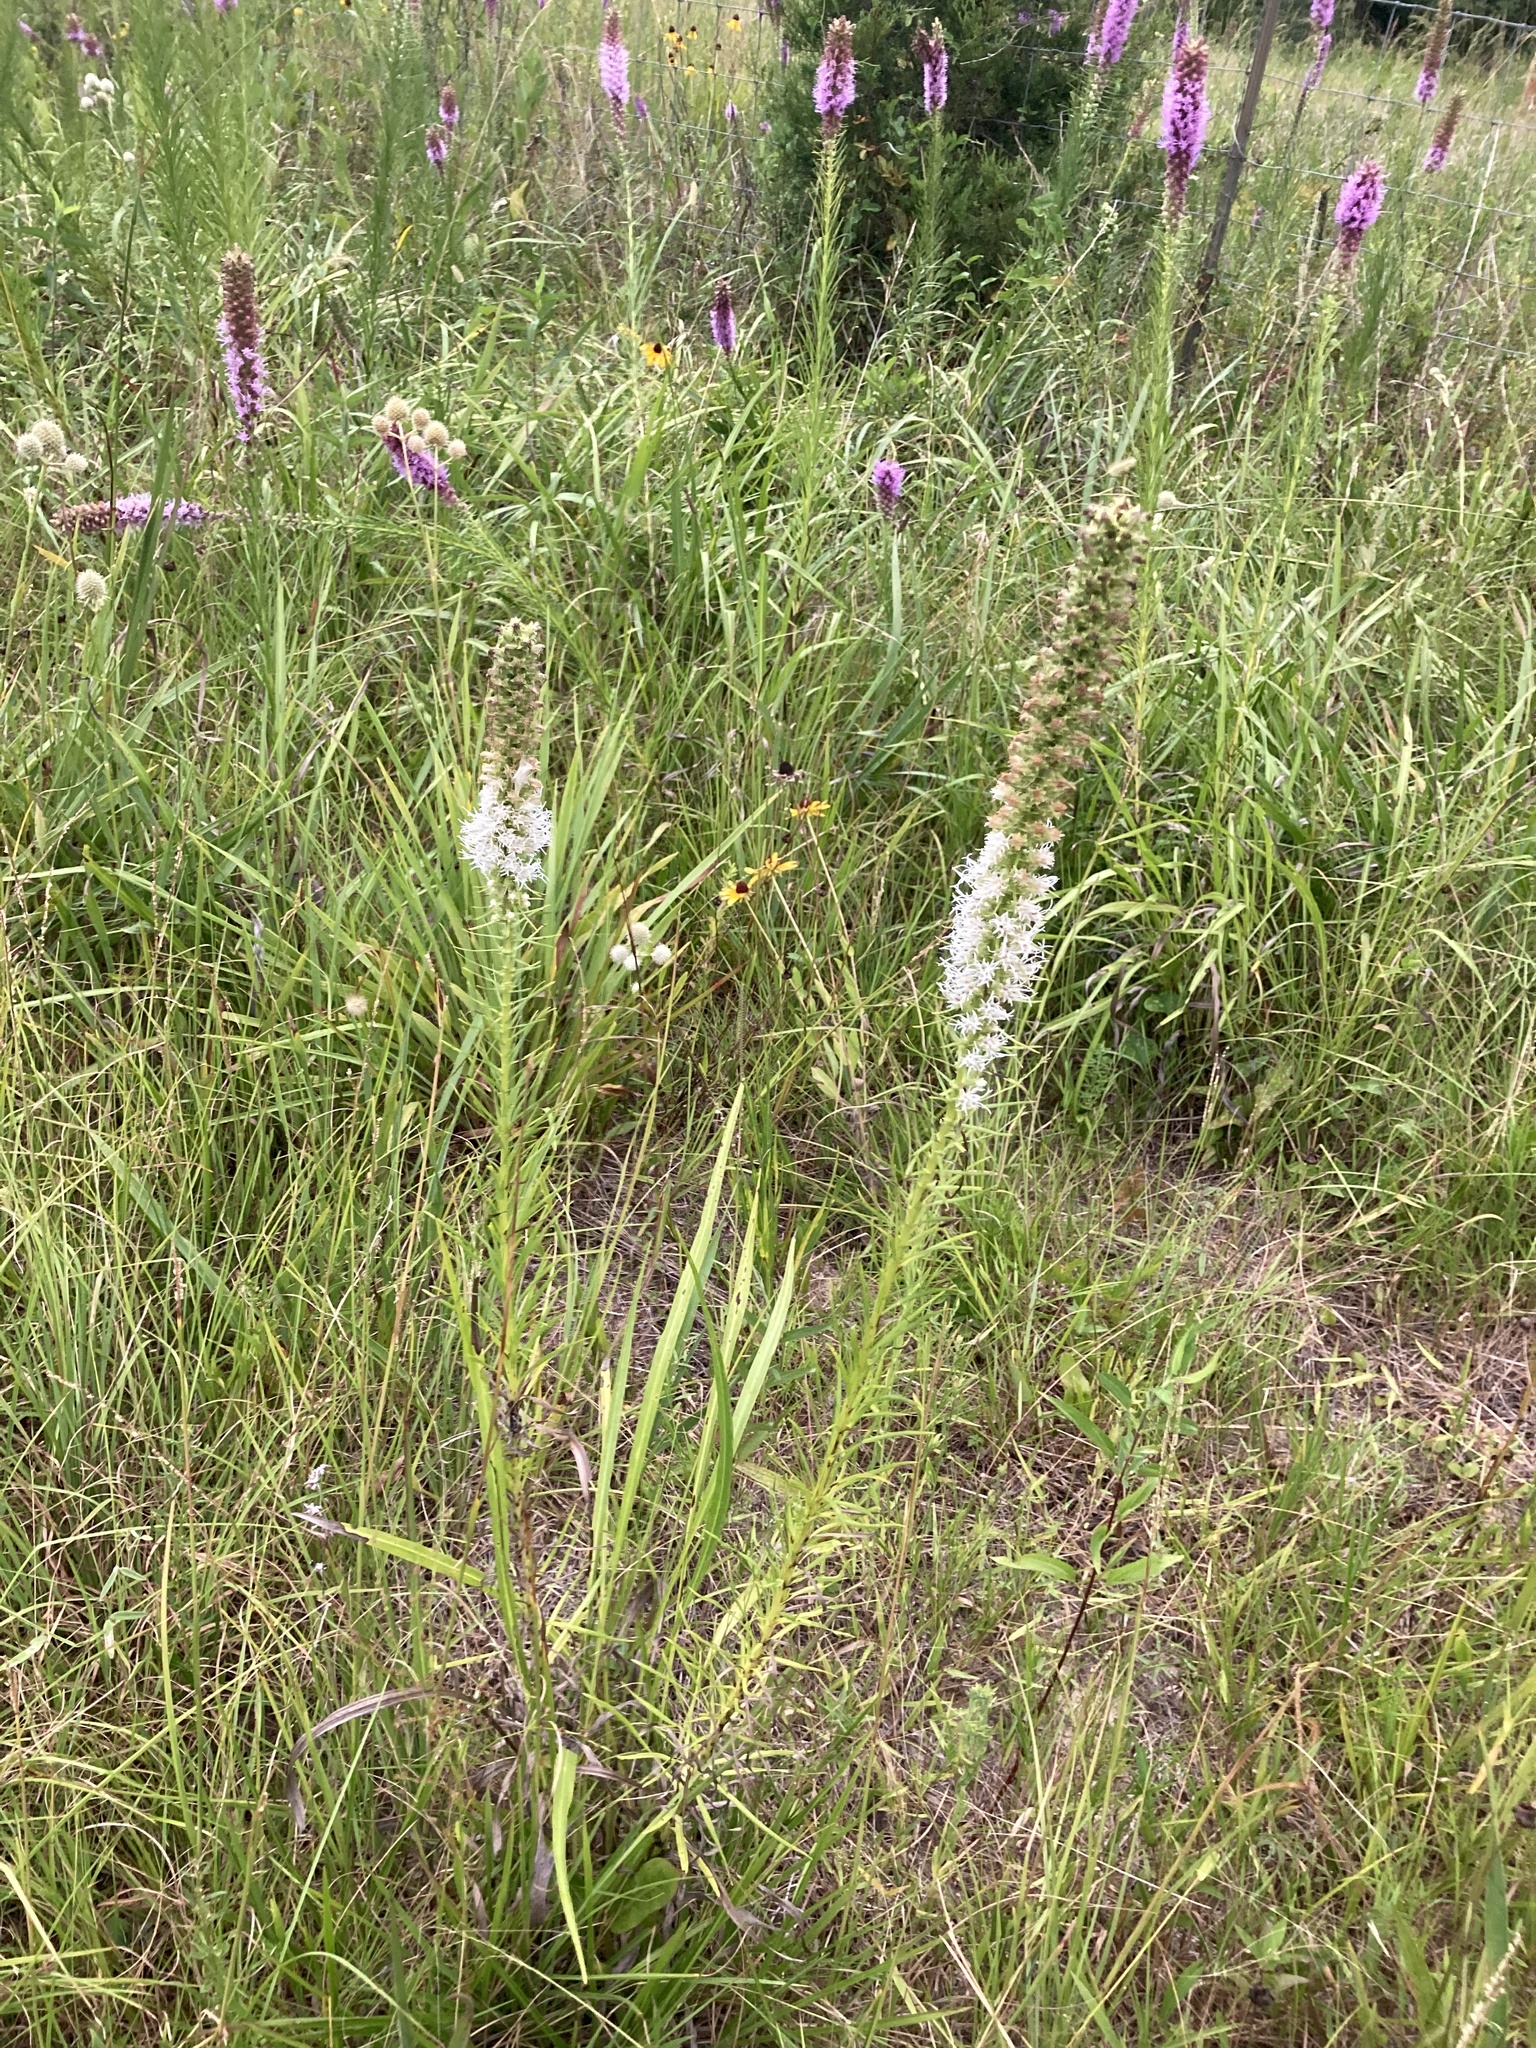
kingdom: Plantae
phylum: Tracheophyta
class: Magnoliopsida
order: Asterales
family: Asteraceae
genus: Liatris
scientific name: Liatris pycnostachya
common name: Cattail gayfeather
